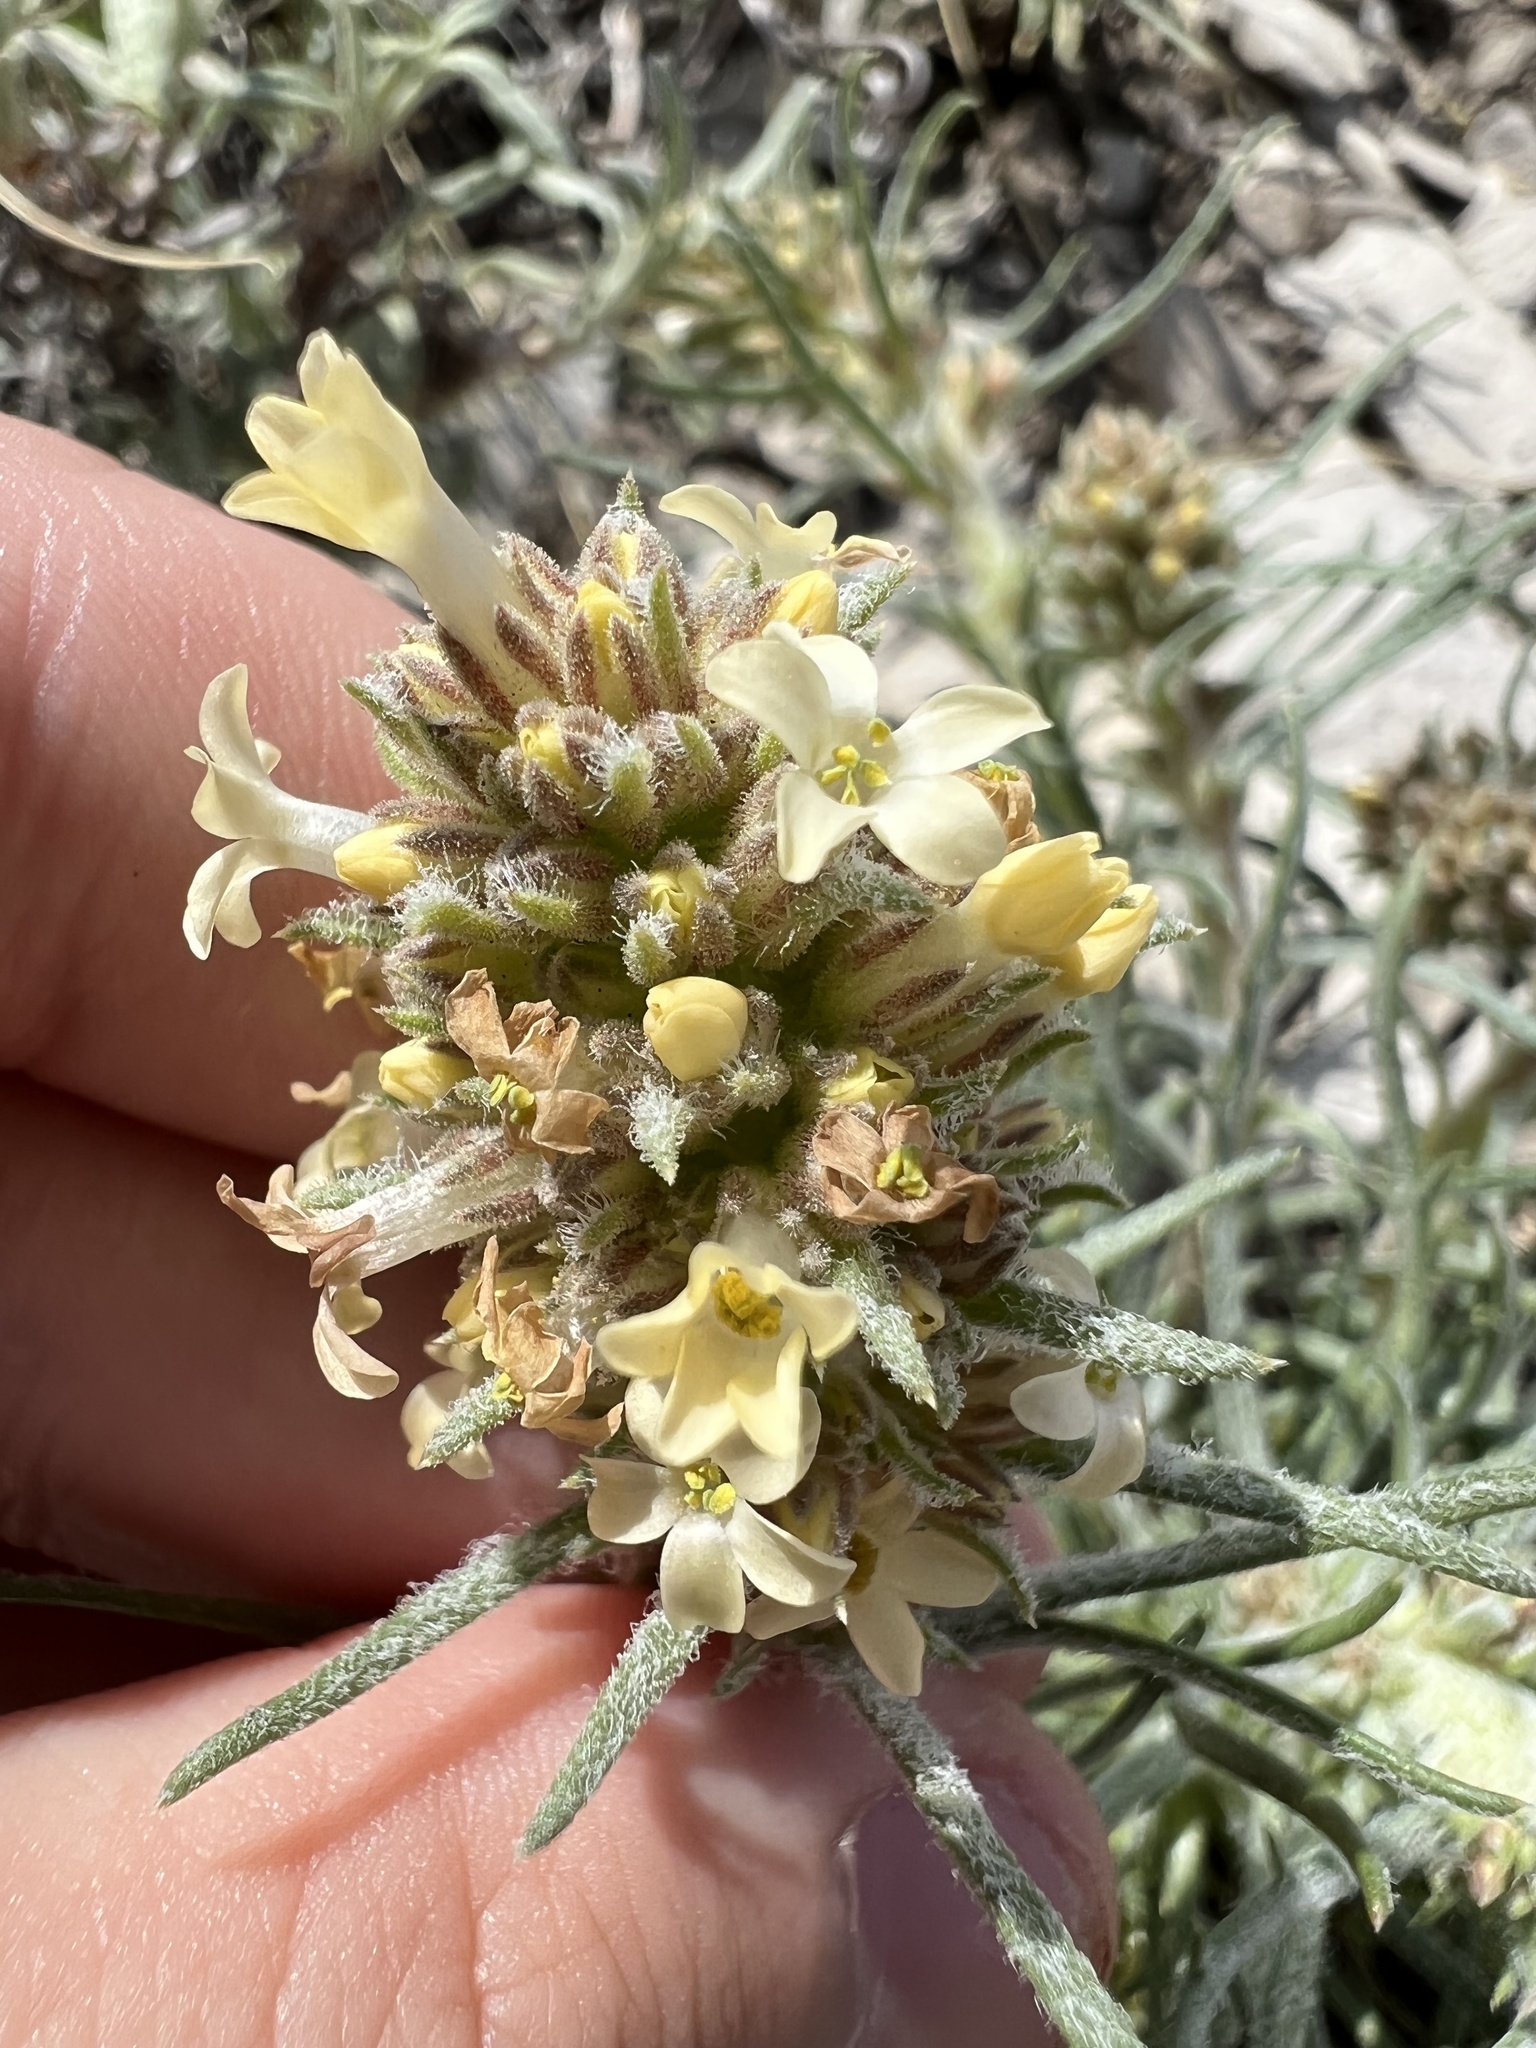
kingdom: Plantae
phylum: Tracheophyta
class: Magnoliopsida
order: Ericales
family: Polemoniaceae
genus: Ipomopsis
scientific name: Ipomopsis spicata
